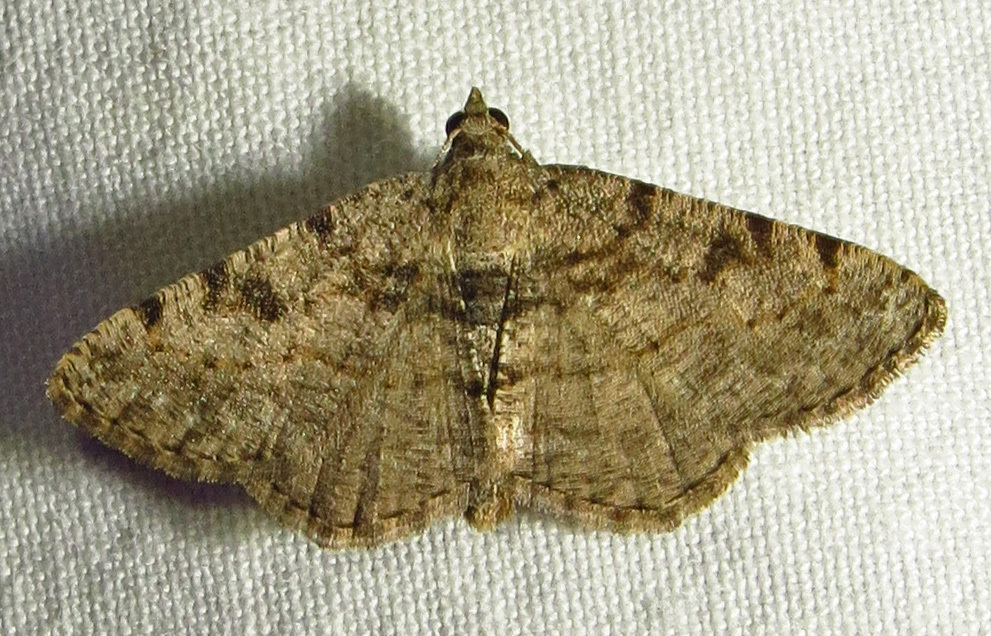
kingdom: Animalia
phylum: Arthropoda
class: Insecta
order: Lepidoptera
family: Geometridae
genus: Digrammia
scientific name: Digrammia gnophosaria
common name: Hollow-spotted angle
